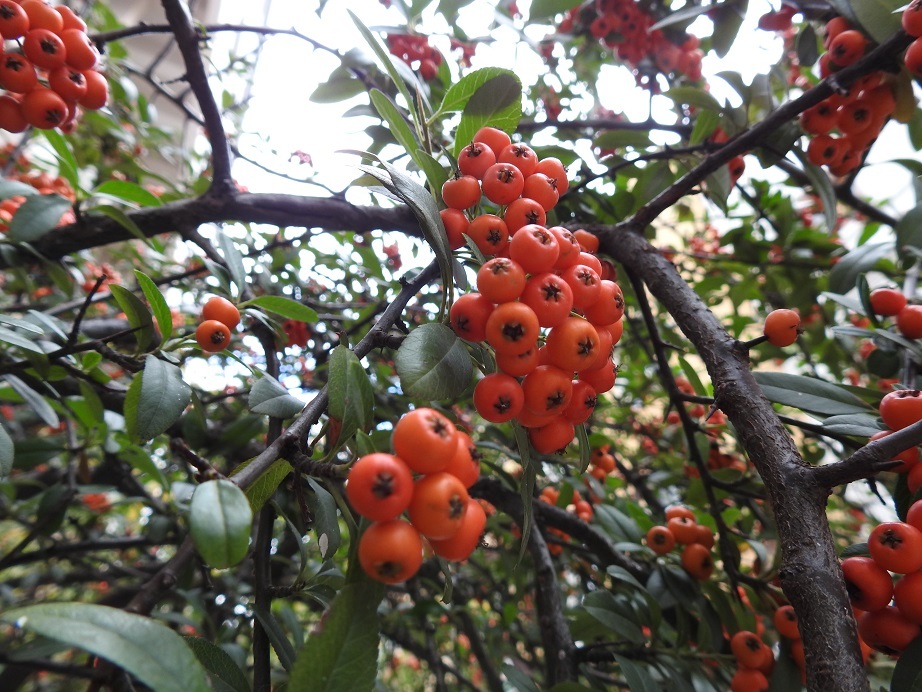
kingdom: Plantae
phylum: Tracheophyta
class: Magnoliopsida
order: Rosales
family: Rosaceae
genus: Pyracantha
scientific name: Pyracantha coccinea
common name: Firethorn
